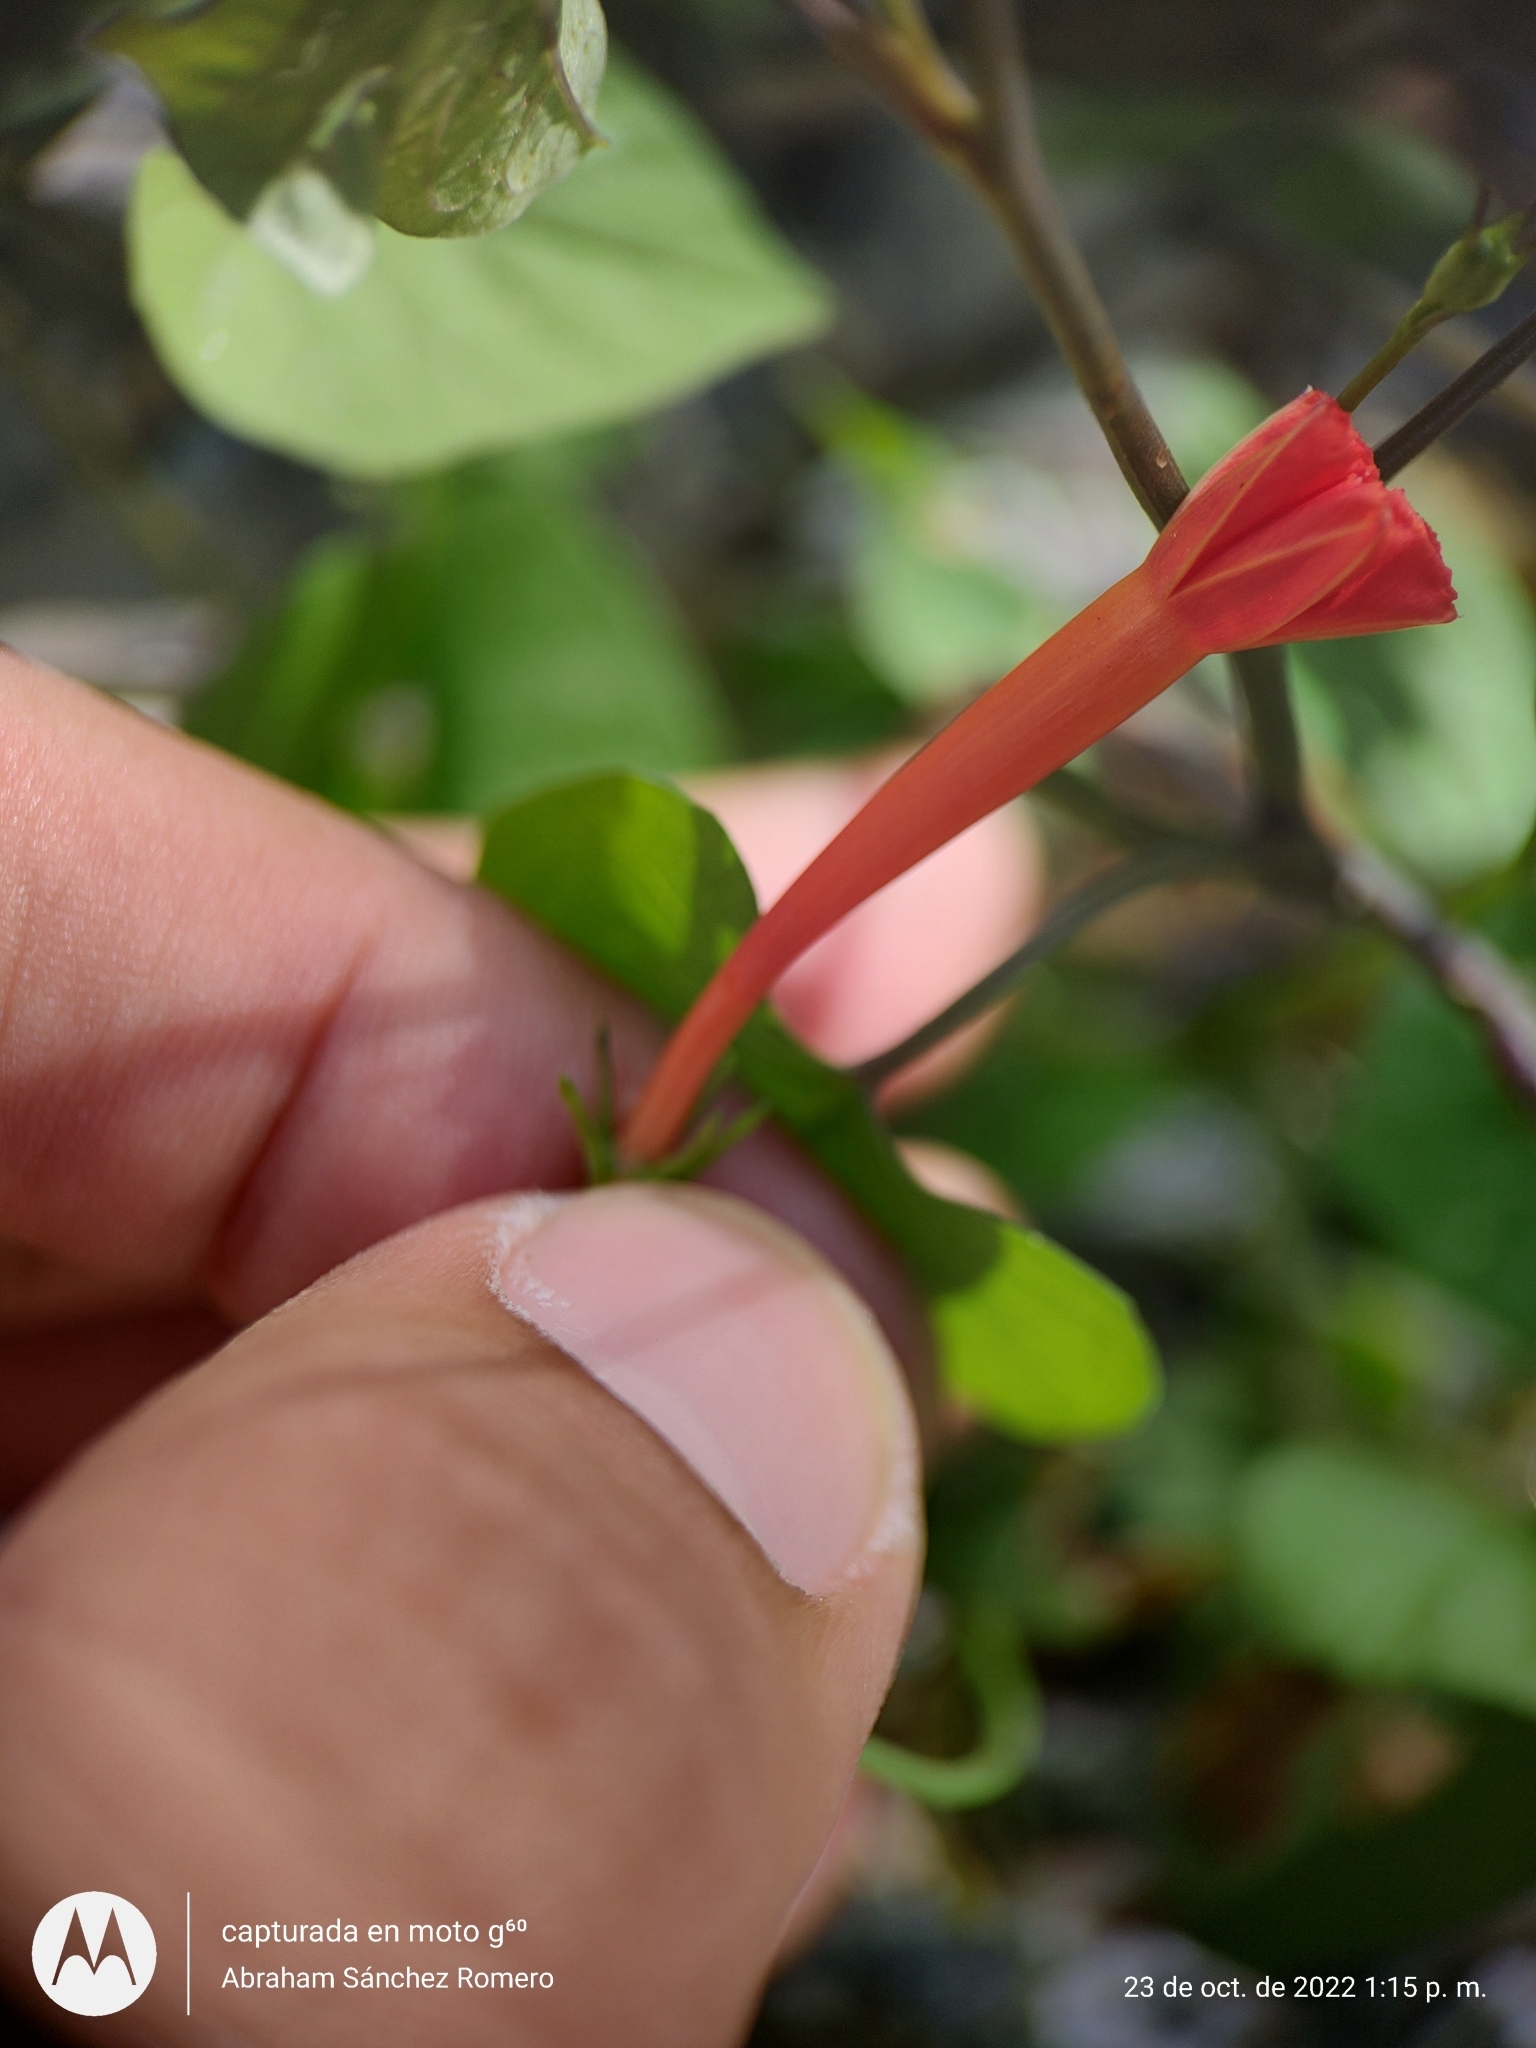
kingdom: Plantae
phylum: Tracheophyta
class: Magnoliopsida
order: Solanales
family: Convolvulaceae
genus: Ipomoea
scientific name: Ipomoea hederifolia
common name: Ivy-leaf morning-glory
